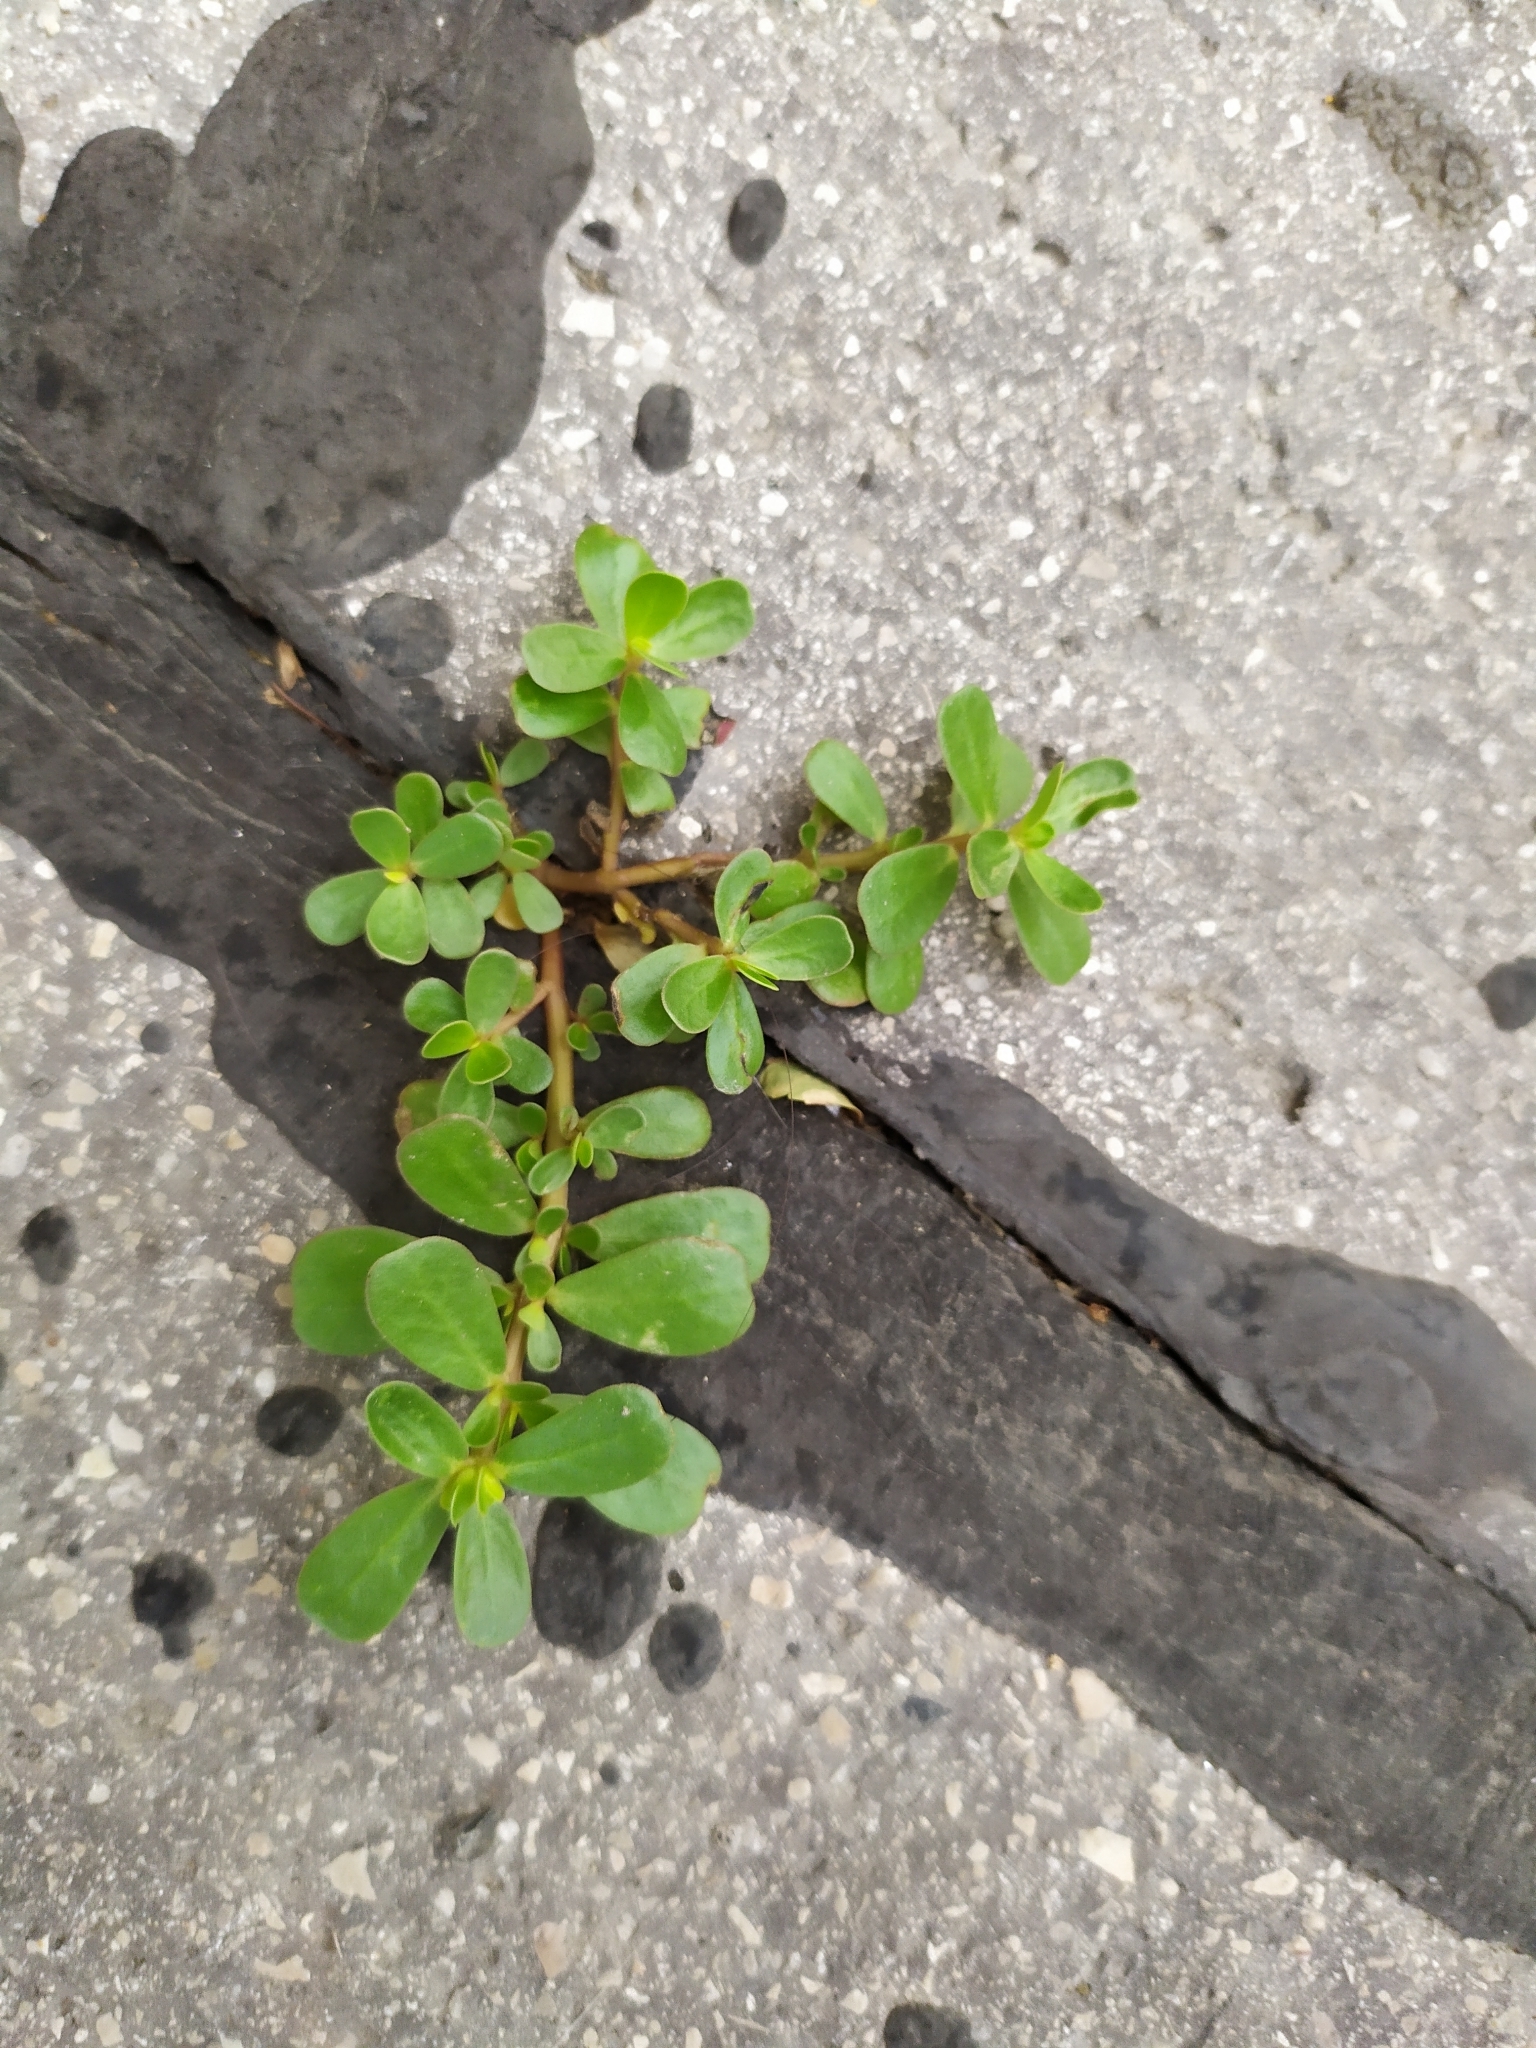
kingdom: Plantae
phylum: Tracheophyta
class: Magnoliopsida
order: Caryophyllales
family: Portulacaceae
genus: Portulaca
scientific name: Portulaca oleracea
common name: Common purslane
